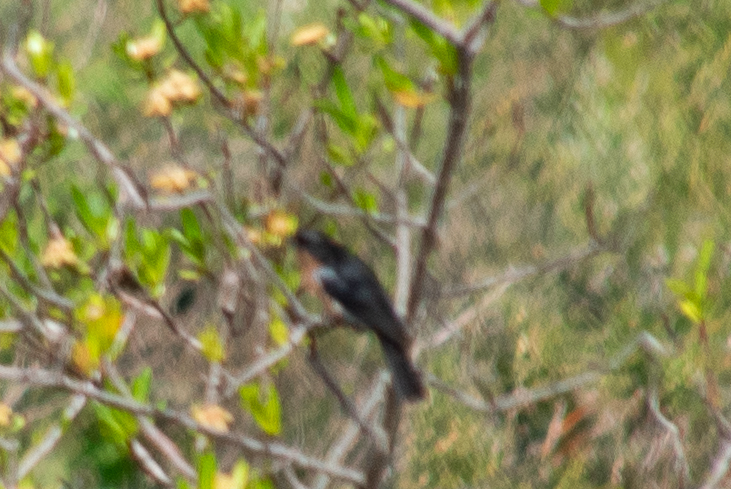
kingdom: Animalia
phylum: Chordata
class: Aves
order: Passeriformes
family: Thraupidae
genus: Diglossa
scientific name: Diglossa brunneiventris
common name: Black-throated flowerpiercer
